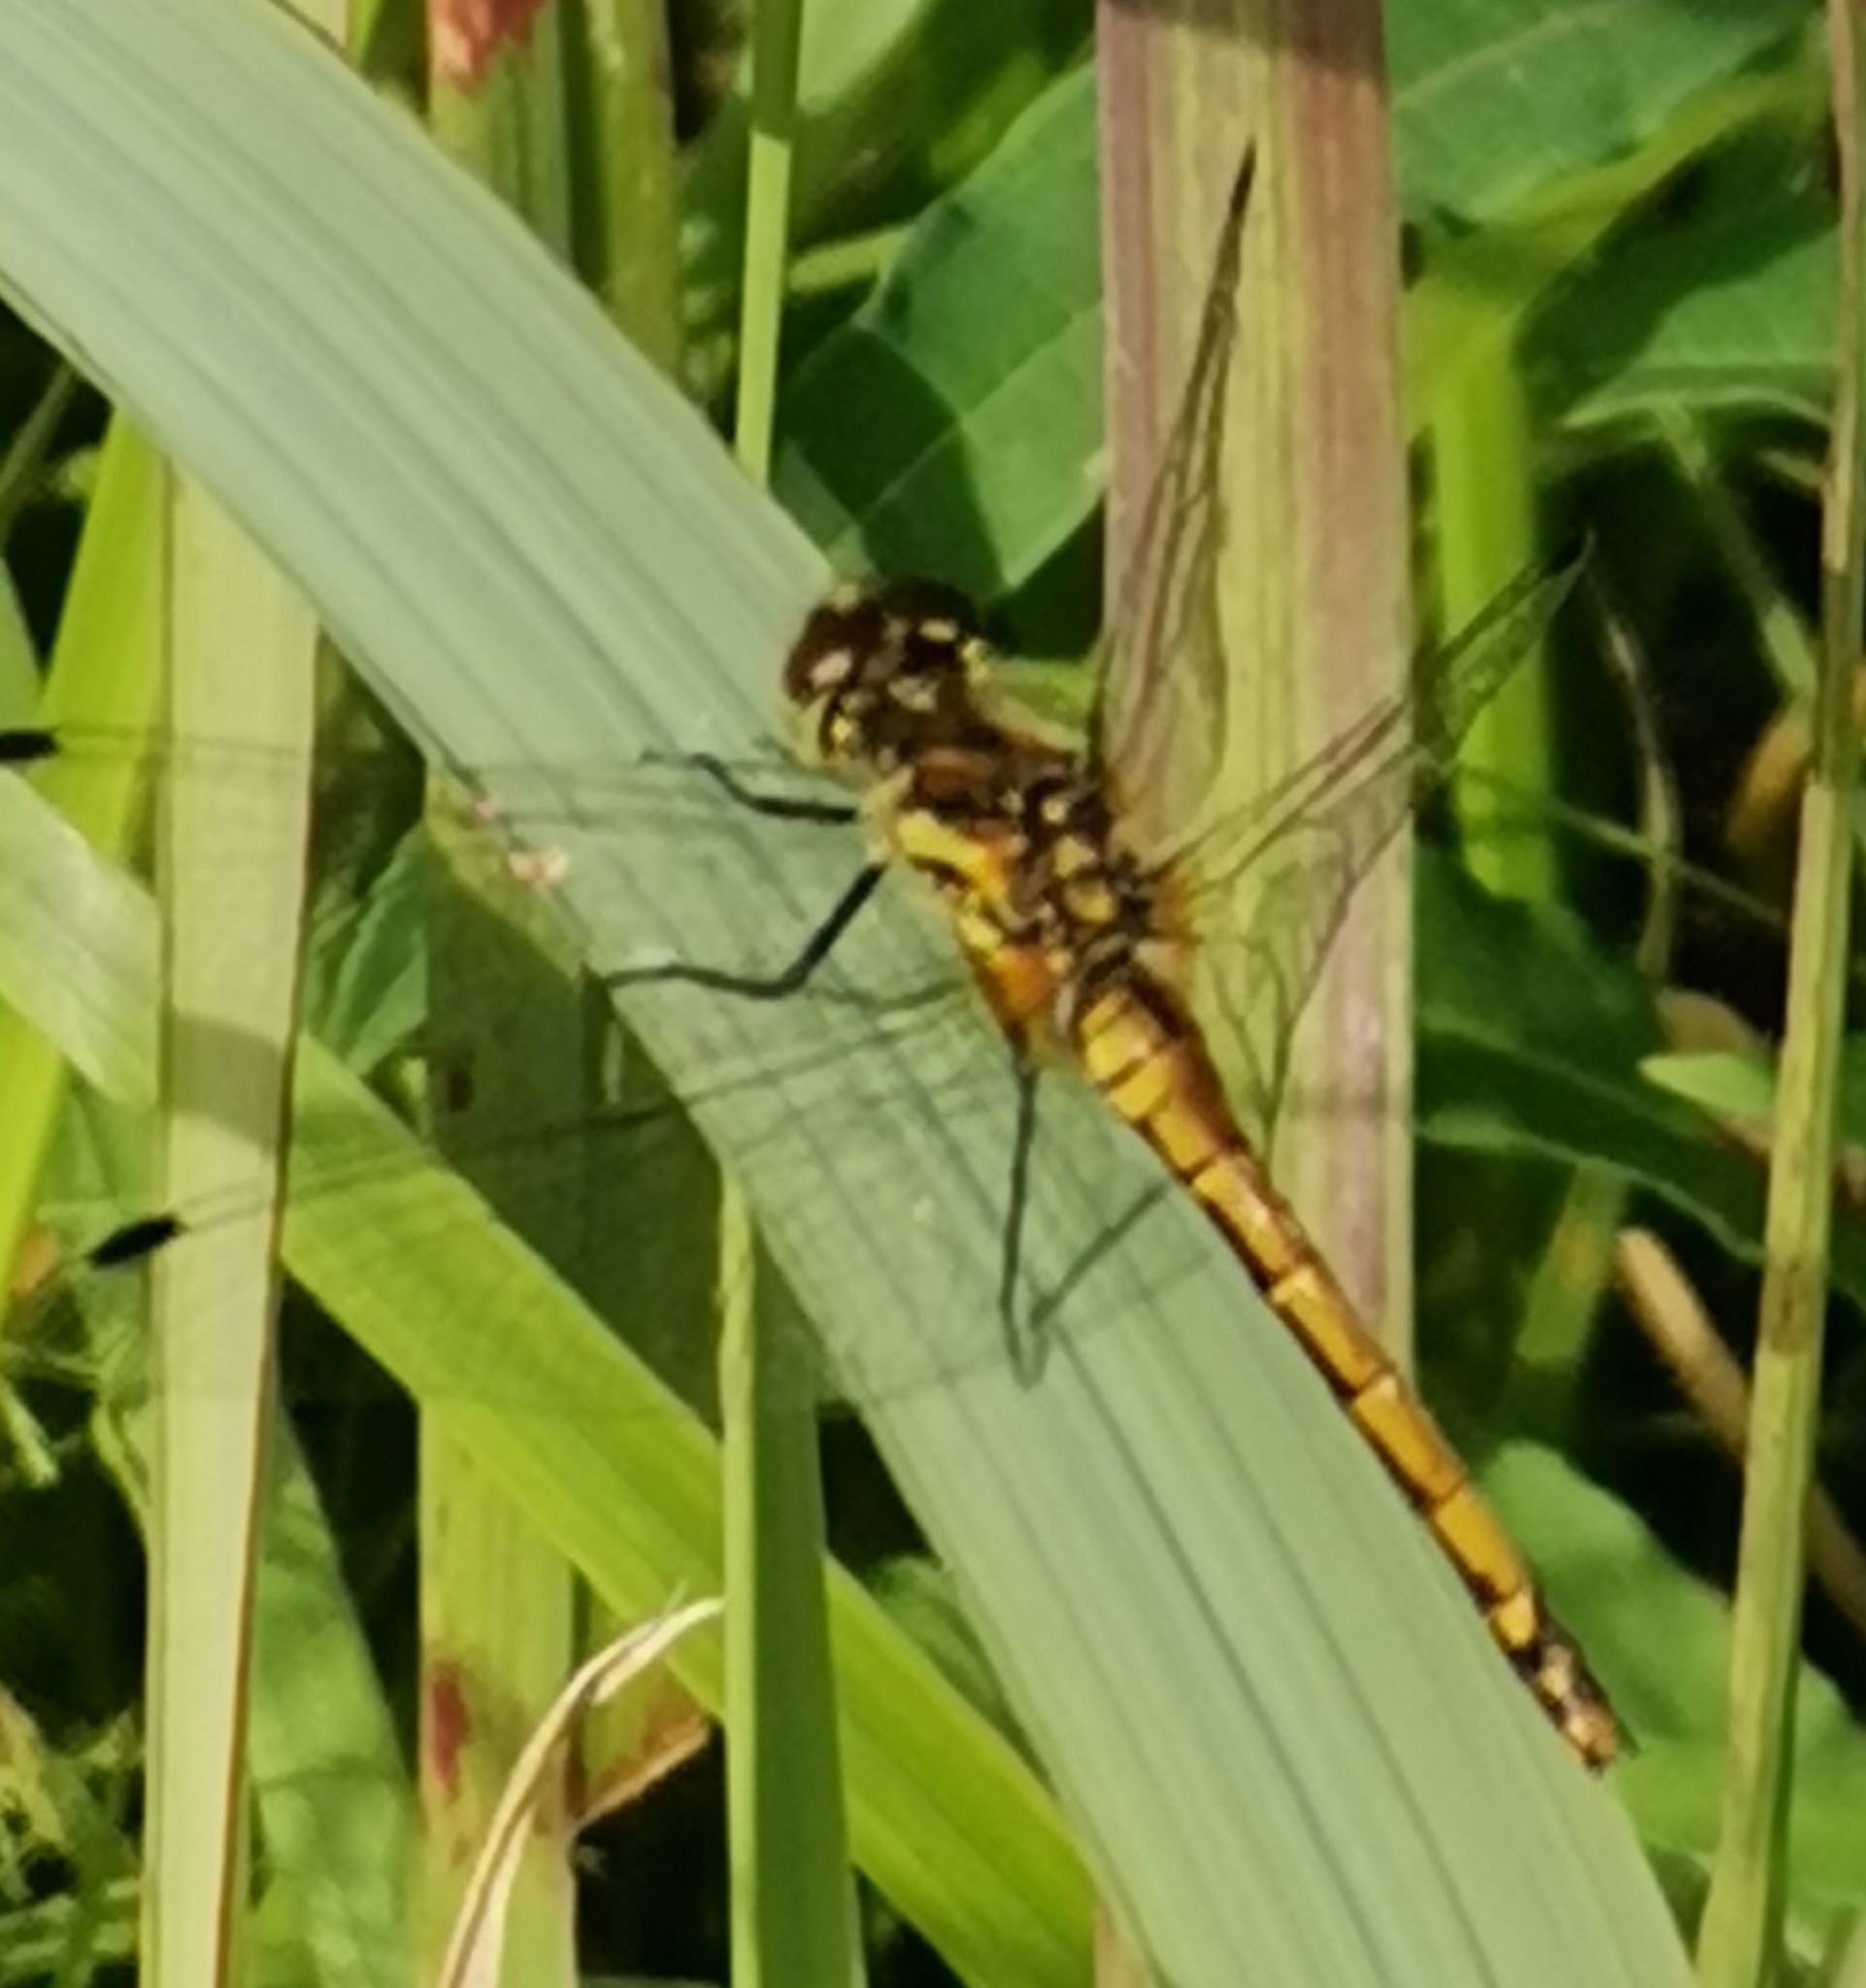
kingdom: Animalia
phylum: Arthropoda
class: Insecta
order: Odonata
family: Libellulidae
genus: Sympetrum
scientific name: Sympetrum danae
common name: Black darter
